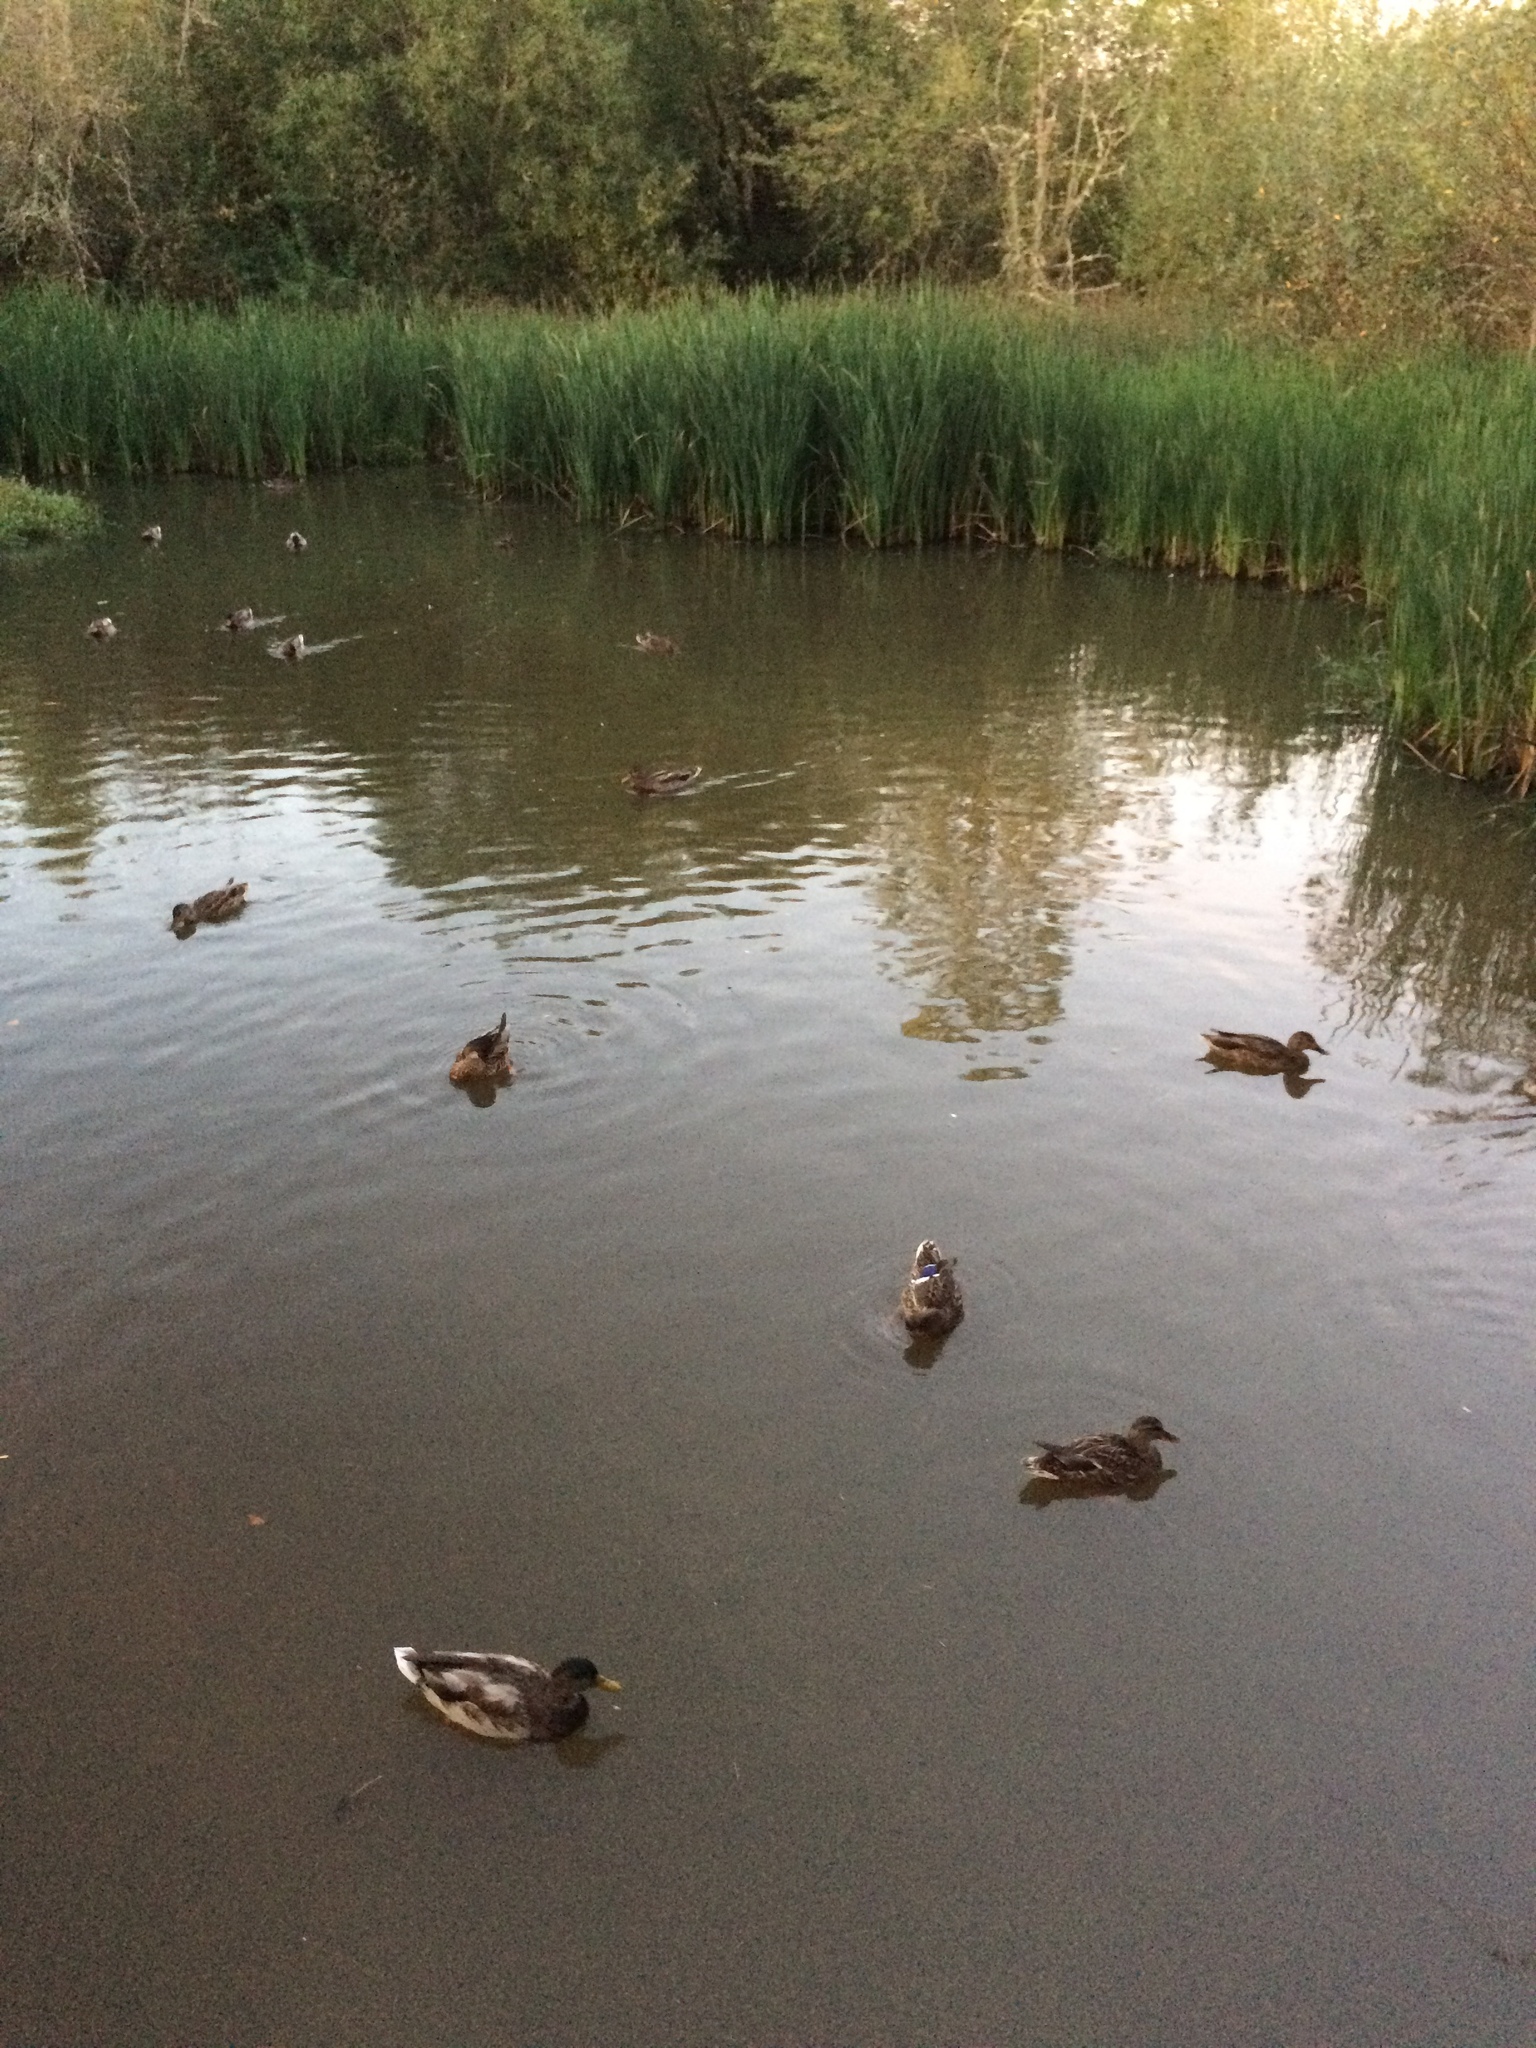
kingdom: Animalia
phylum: Chordata
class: Aves
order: Anseriformes
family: Anatidae
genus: Anas
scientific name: Anas platyrhynchos
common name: Mallard
